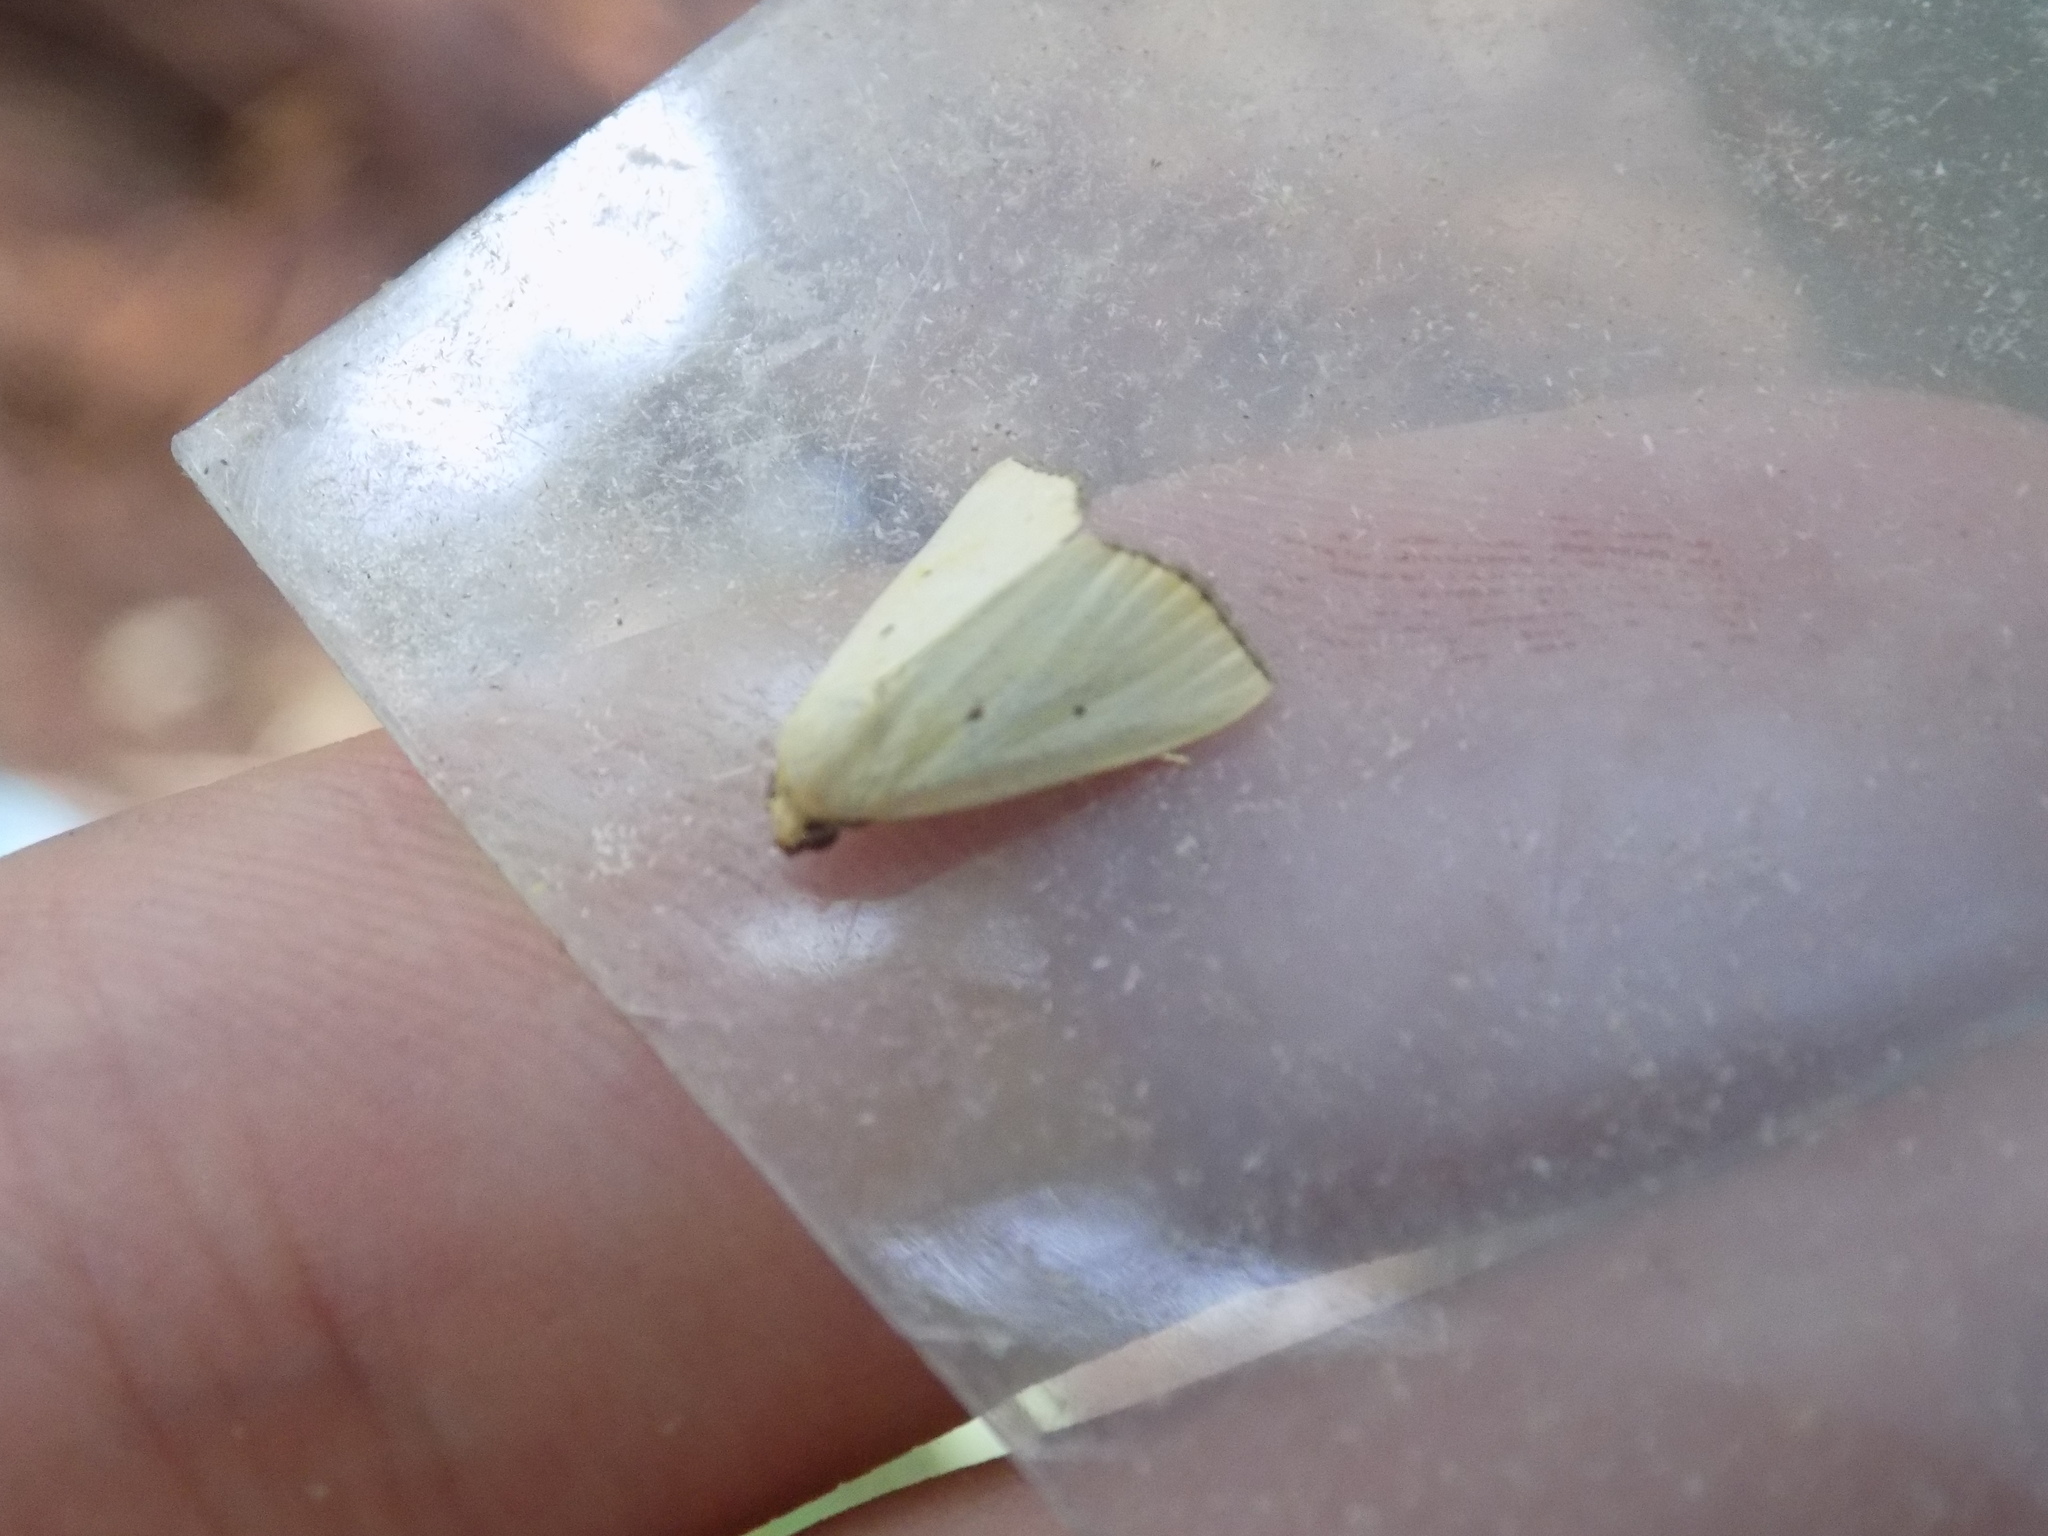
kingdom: Animalia
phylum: Arthropoda
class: Insecta
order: Lepidoptera
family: Noctuidae
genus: Marimatha
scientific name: Marimatha nigrofimbria
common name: Black-bordered lemon moth
